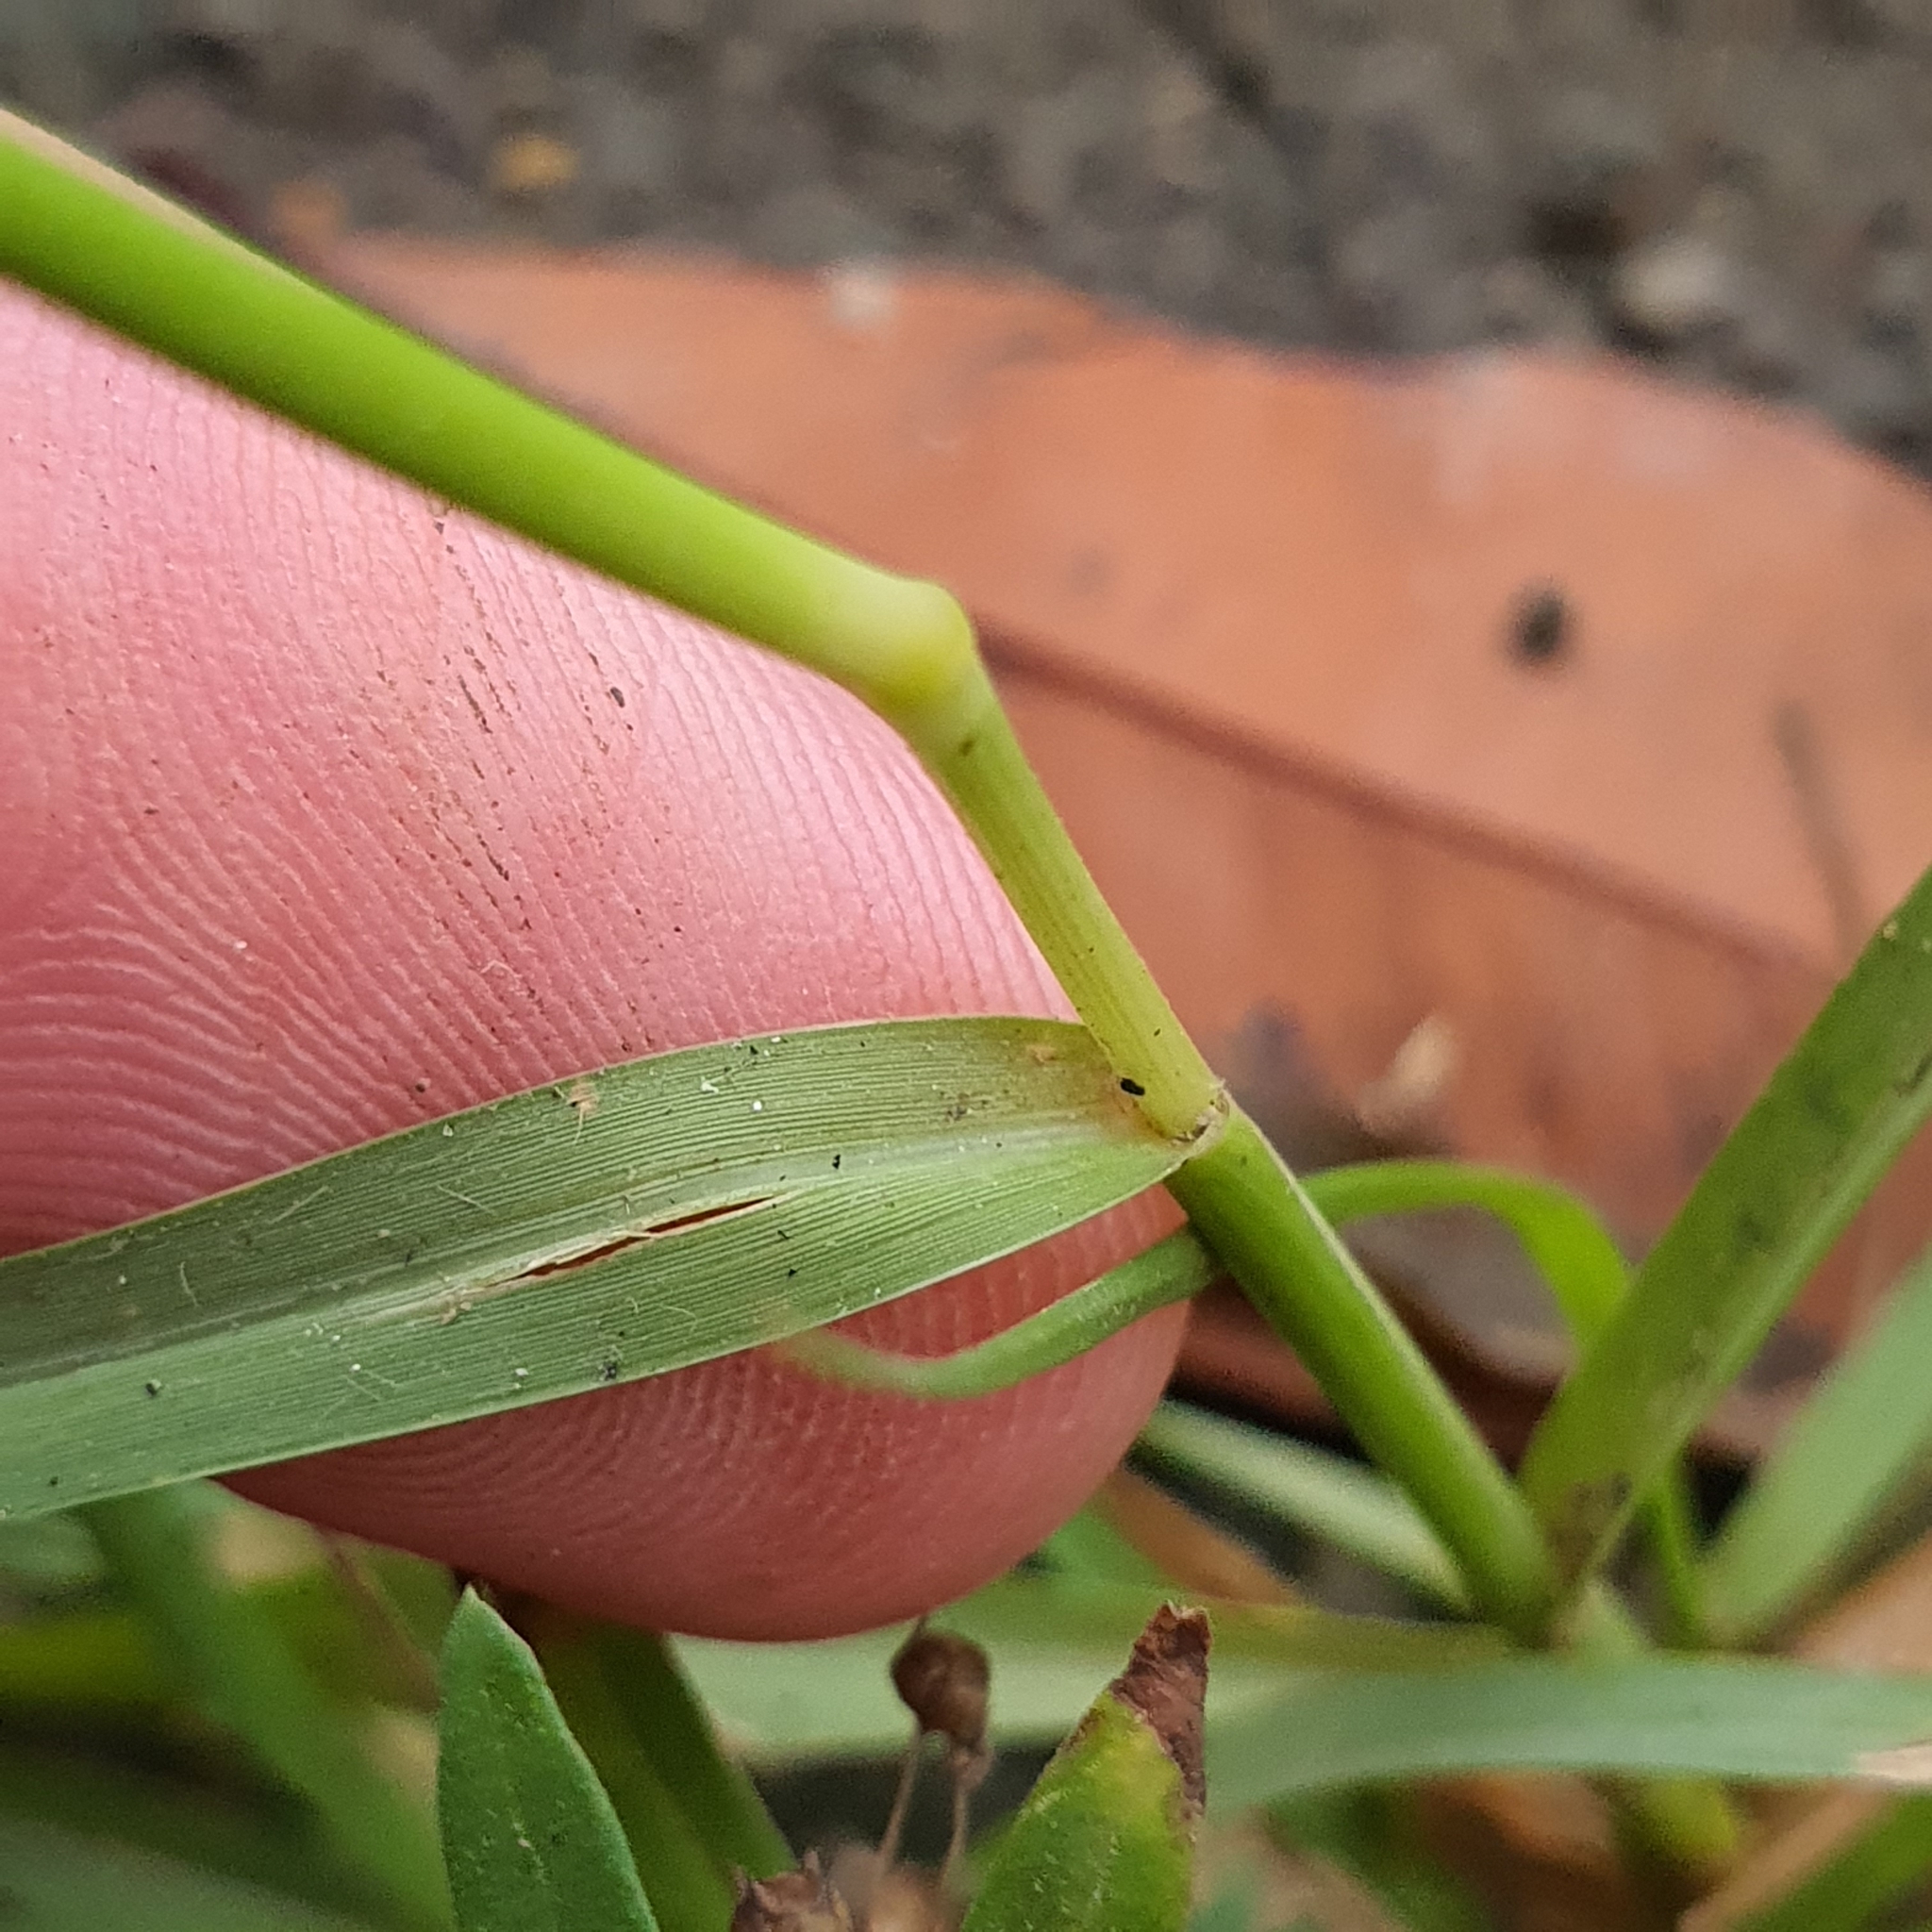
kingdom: Plantae
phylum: Tracheophyta
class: Liliopsida
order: Poales
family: Poaceae
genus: Sporobolus
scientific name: Sporobolus fertilis
